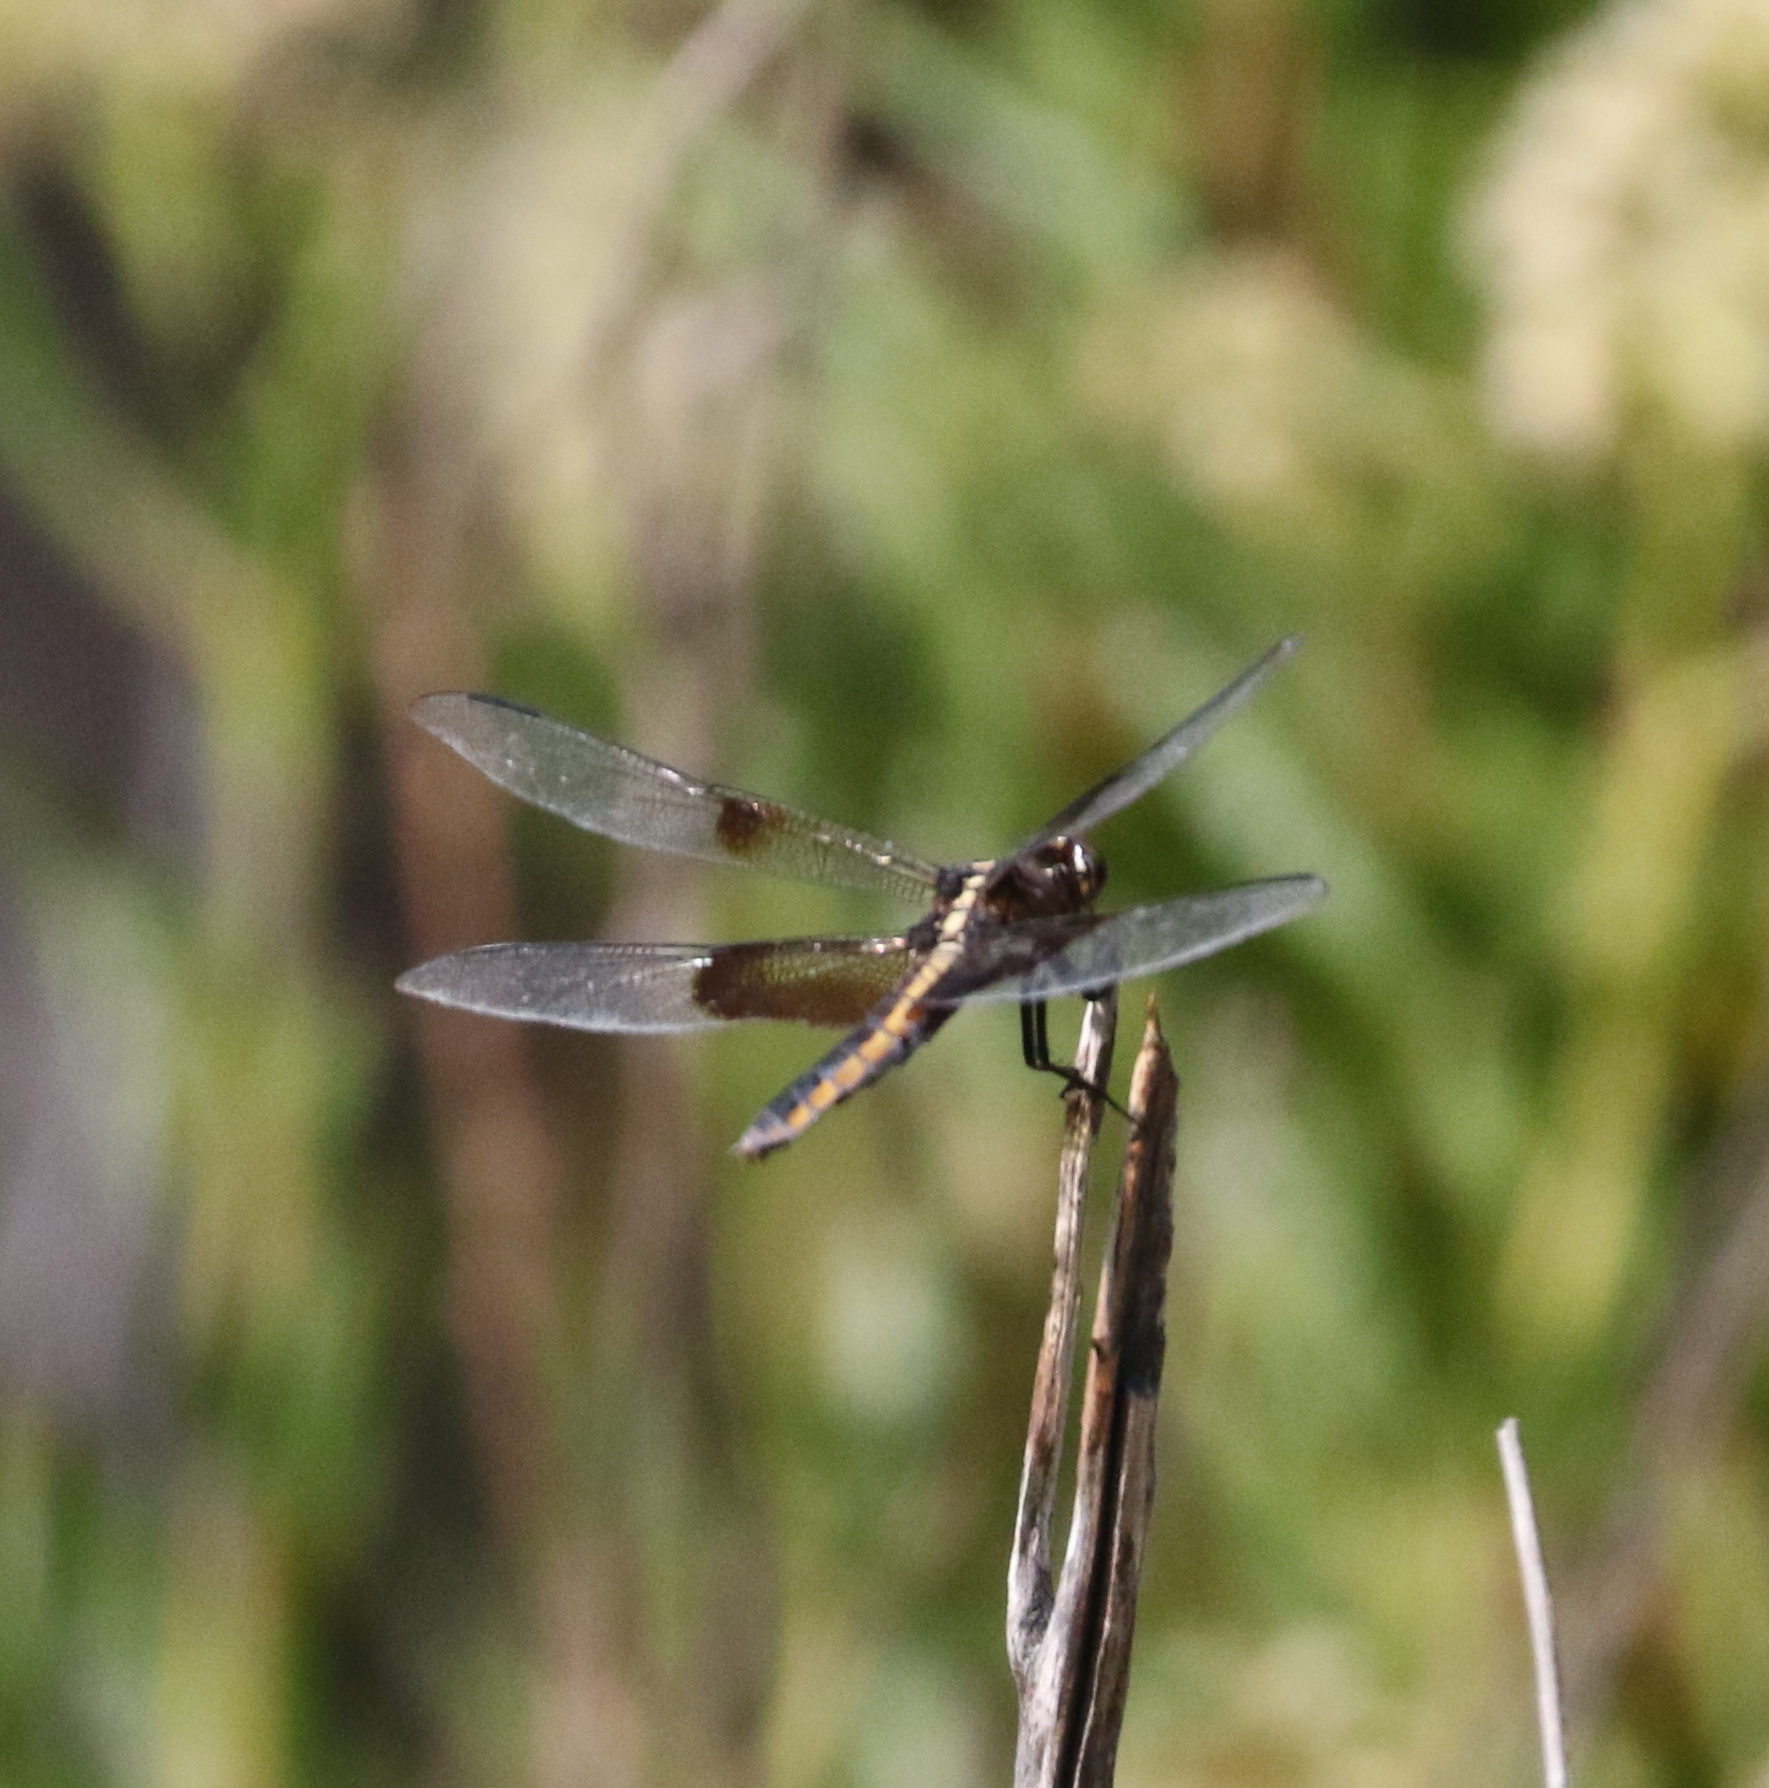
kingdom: Animalia
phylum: Arthropoda
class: Insecta
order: Odonata
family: Libellulidae
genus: Libellula
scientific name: Libellula luctuosa
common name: Widow skimmer
